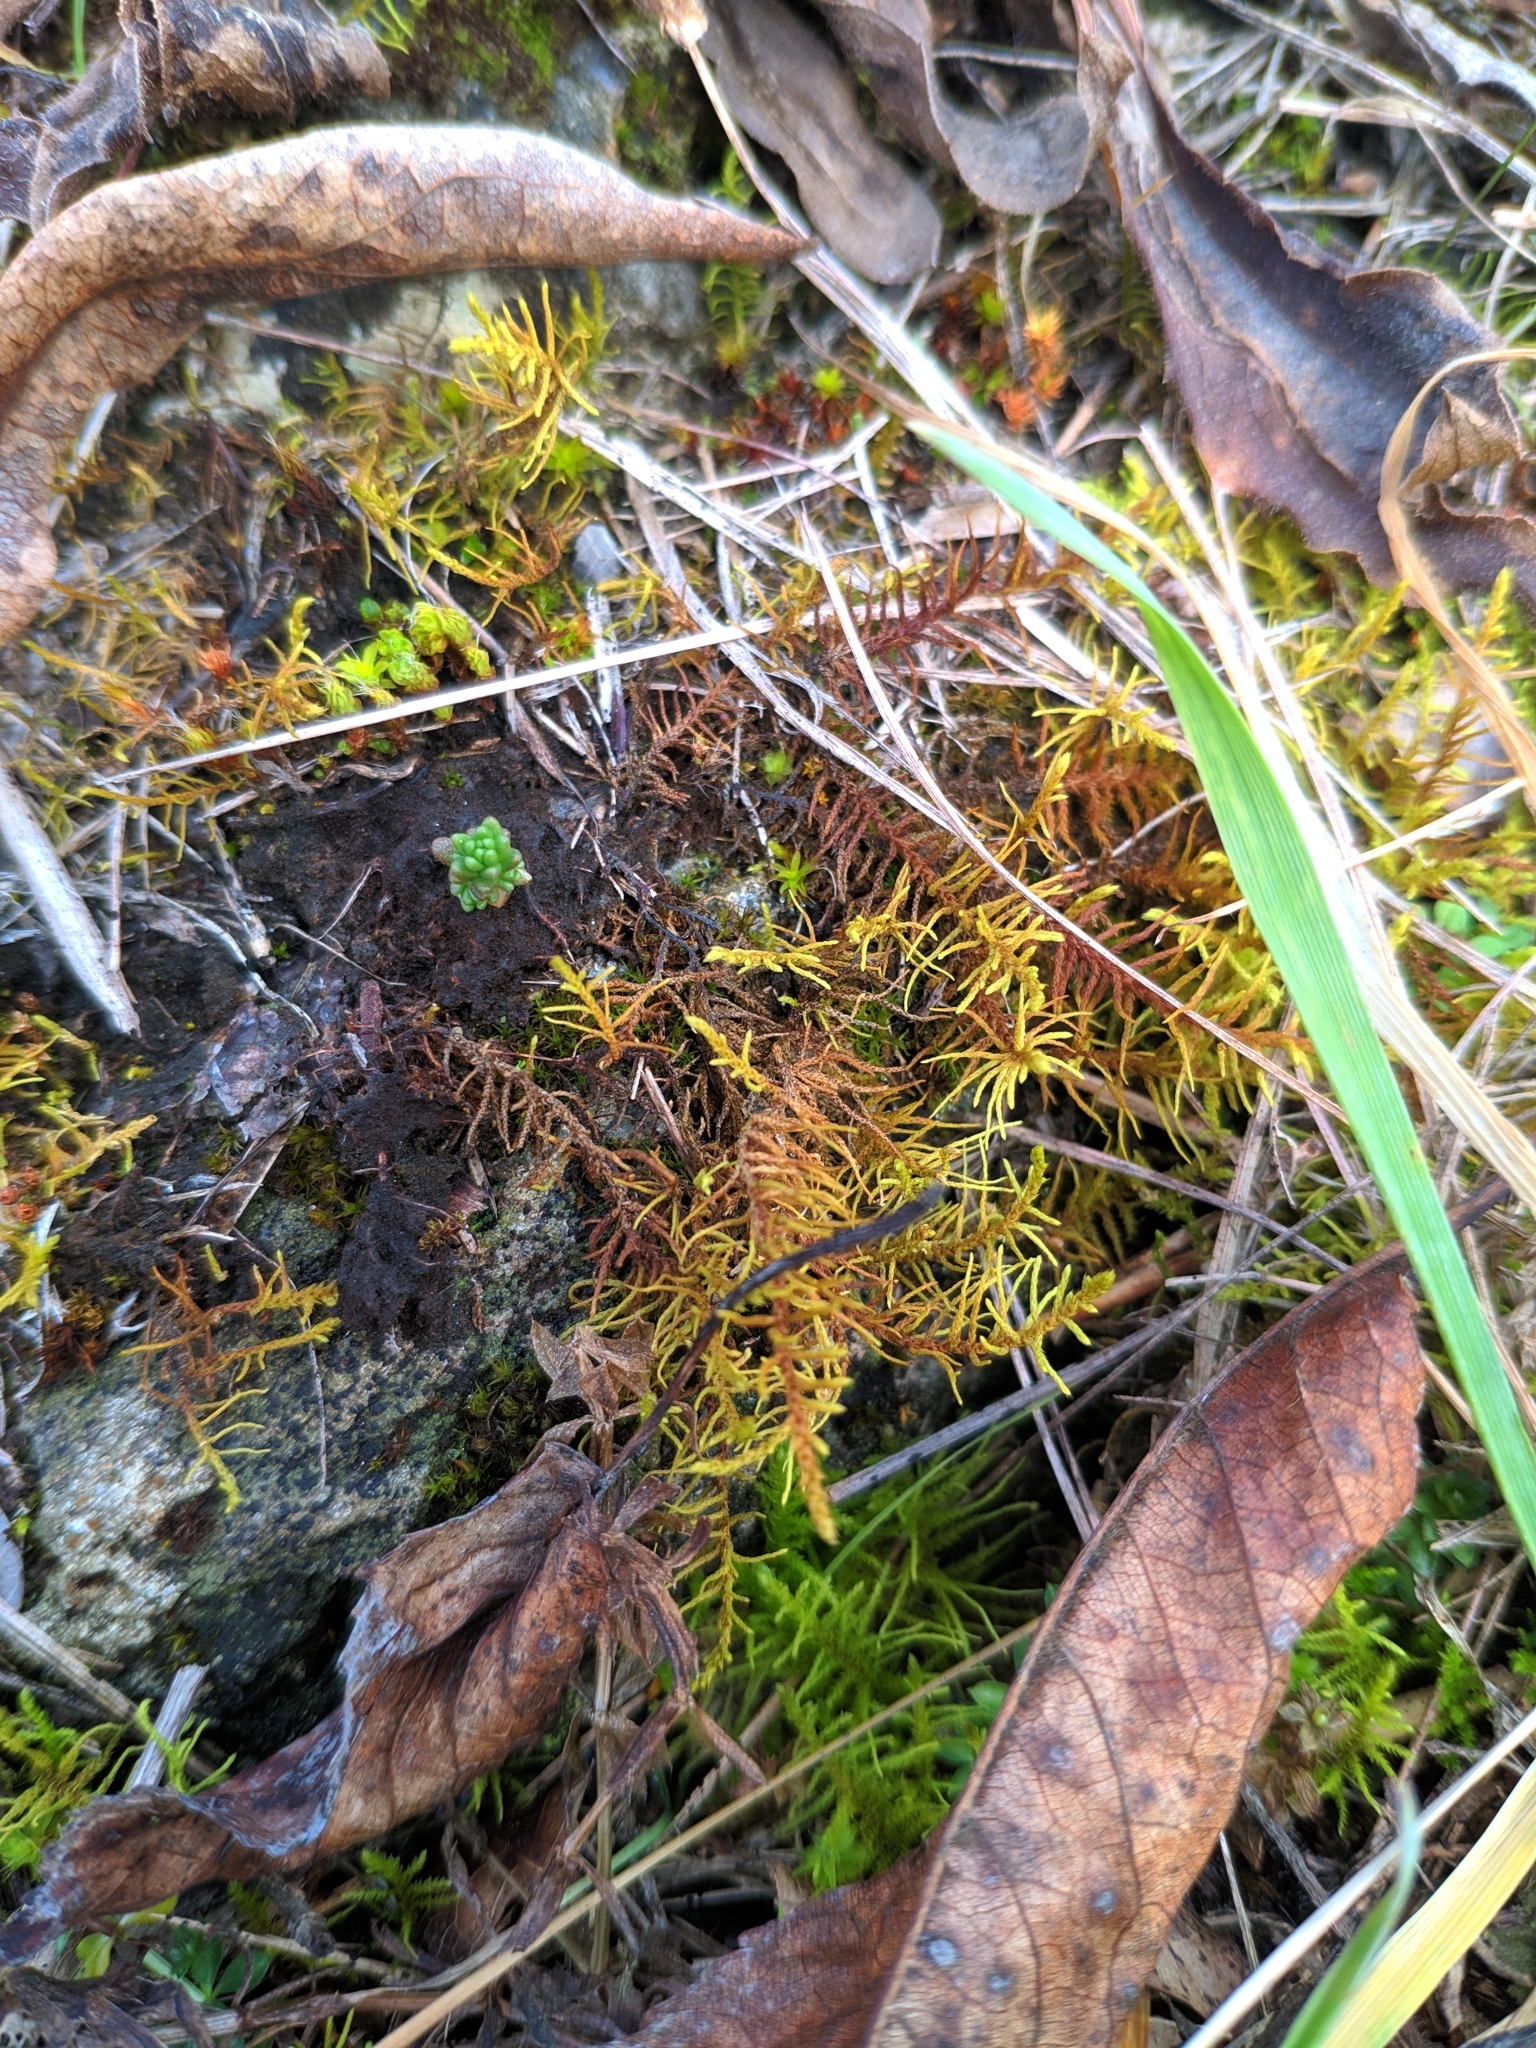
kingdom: Plantae
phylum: Bryophyta
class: Bryopsida
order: Hypnales
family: Thuidiaceae
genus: Abietinella
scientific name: Abietinella abietina
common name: Wiry fern moss
